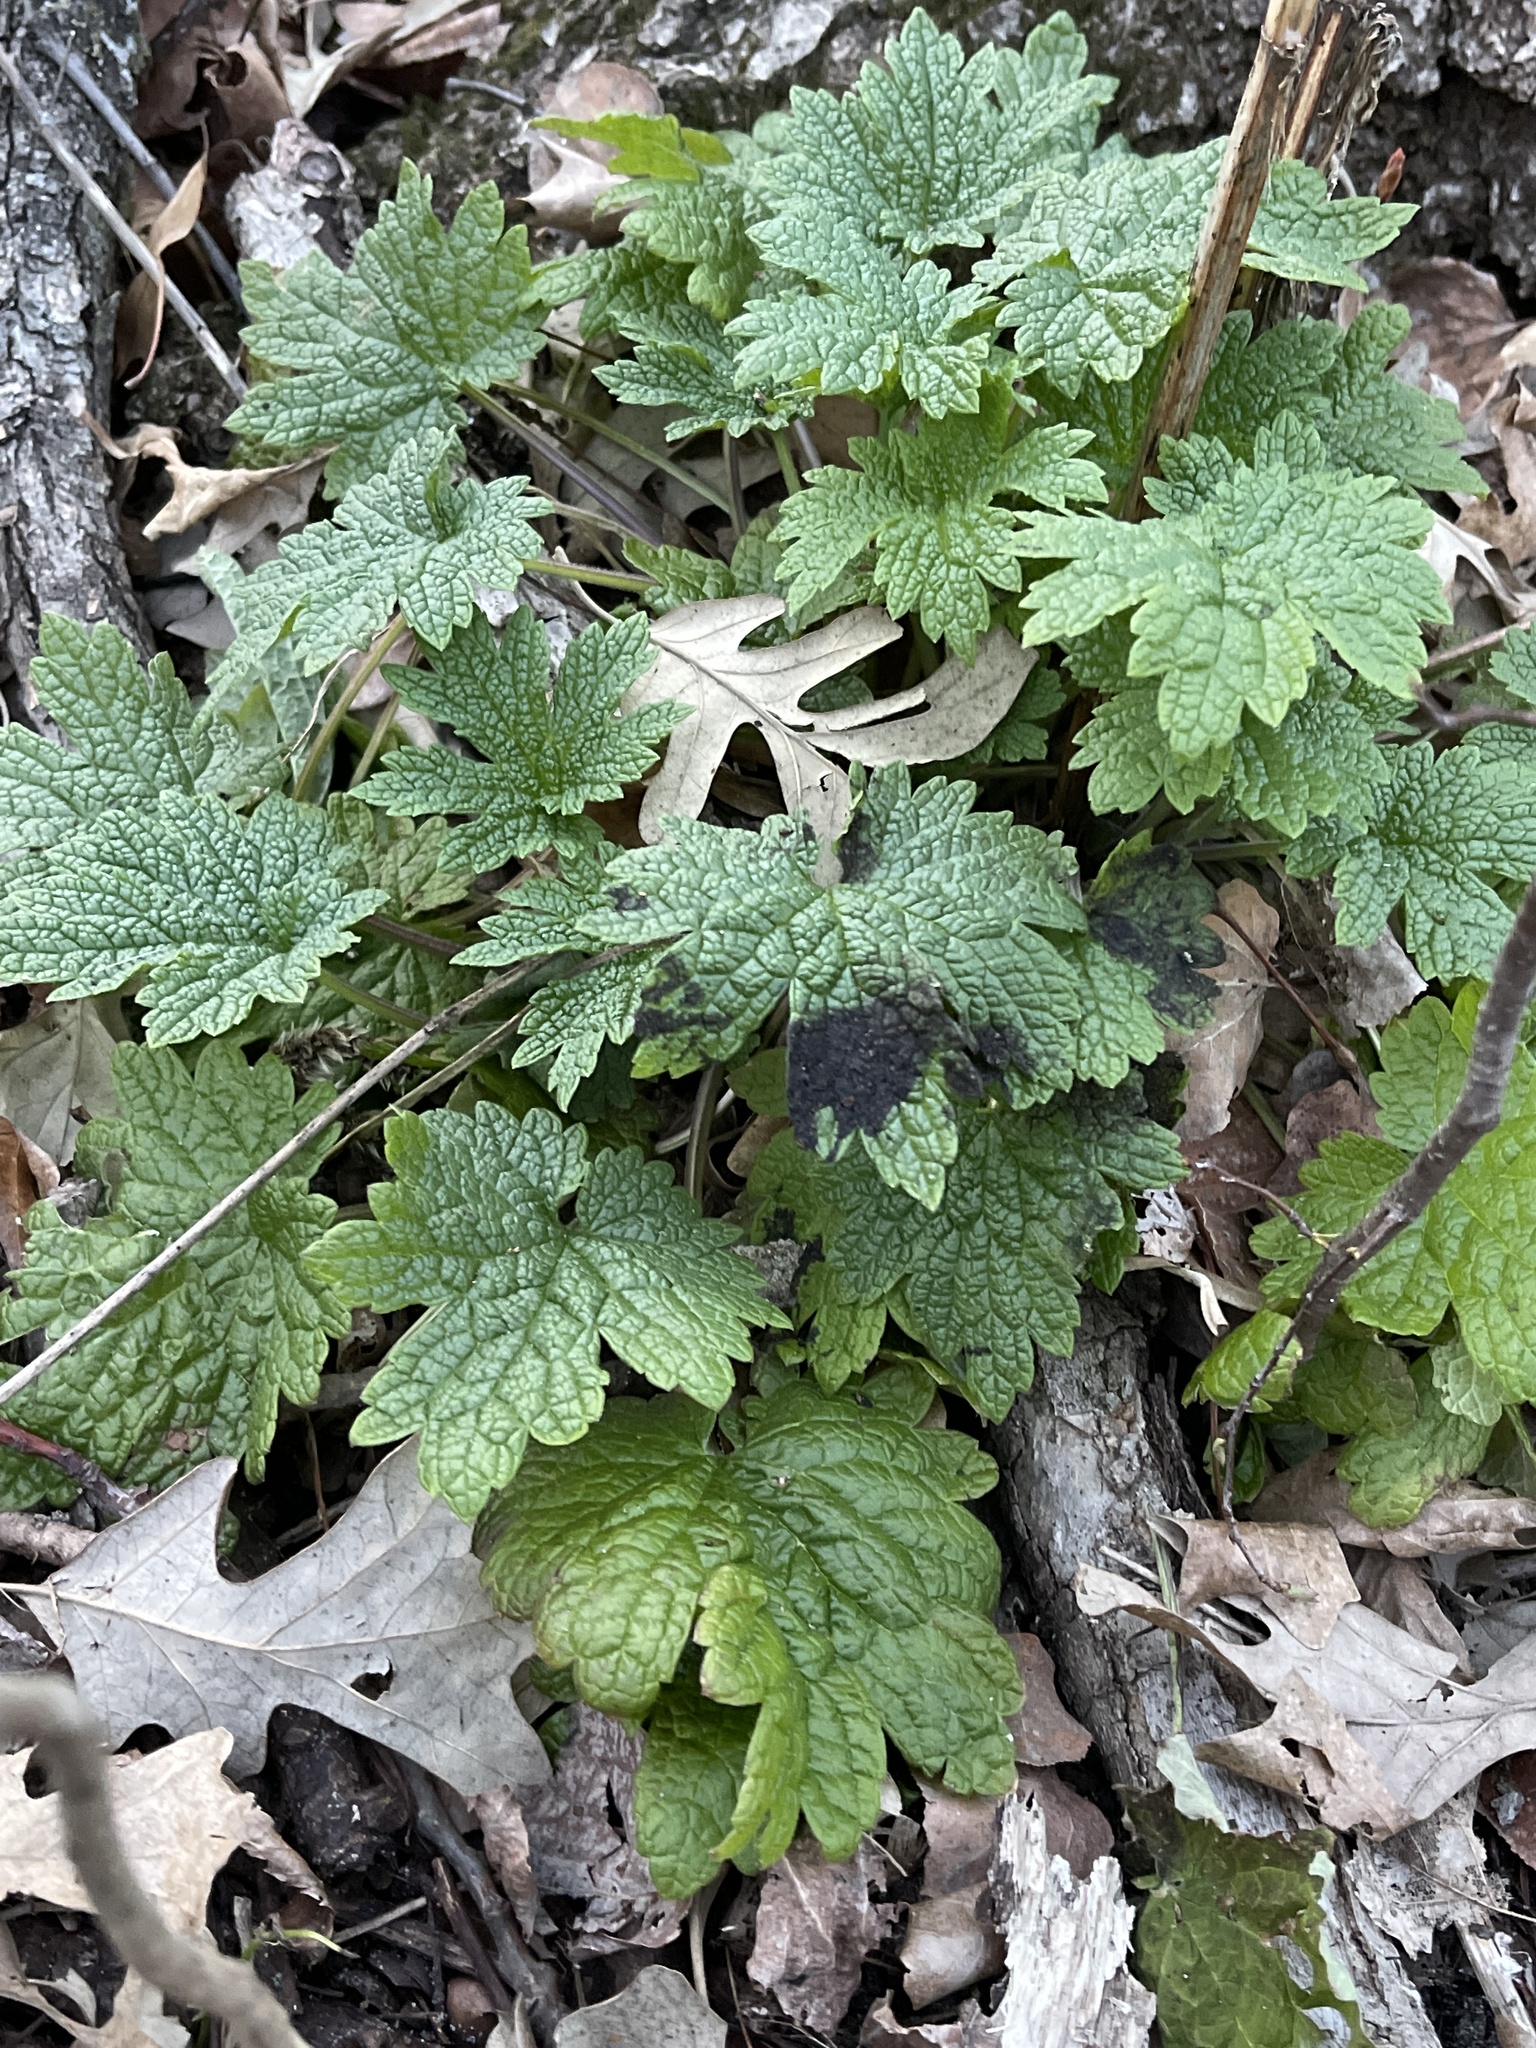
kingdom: Plantae
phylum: Tracheophyta
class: Magnoliopsida
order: Lamiales
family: Lamiaceae
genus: Leonurus
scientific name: Leonurus cardiaca
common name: Motherwort
